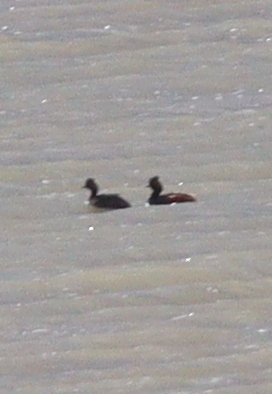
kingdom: Animalia
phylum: Chordata
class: Aves
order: Podicipediformes
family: Podicipedidae
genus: Podiceps
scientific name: Podiceps nigricollis
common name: Black-necked grebe
